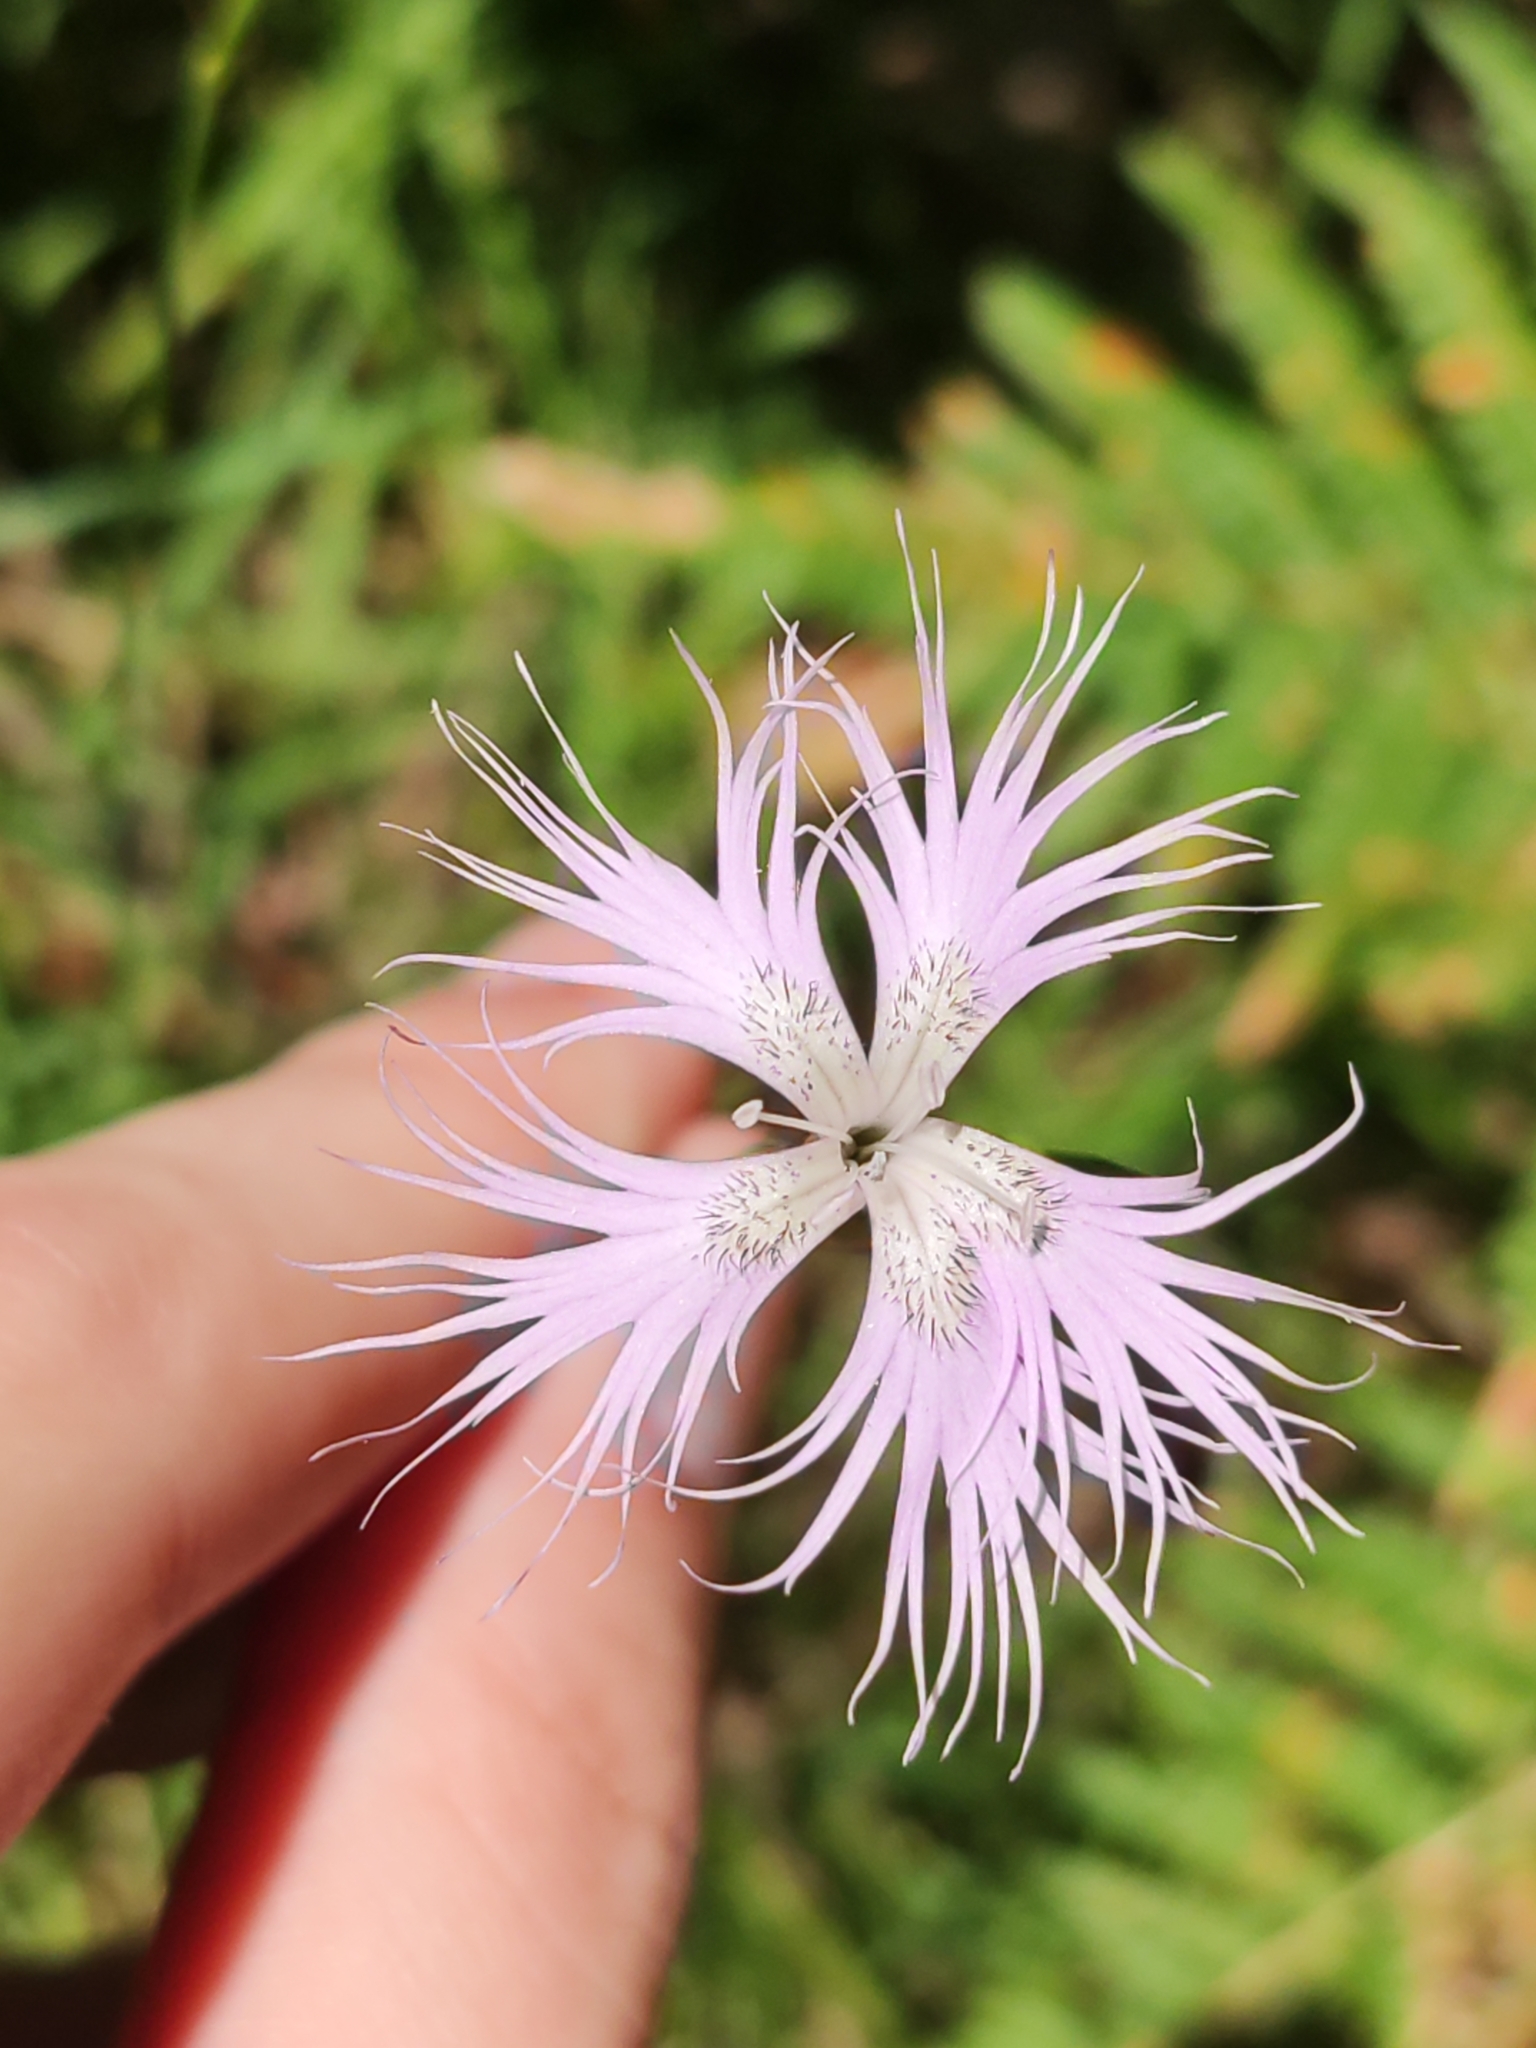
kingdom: Plantae
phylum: Tracheophyta
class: Magnoliopsida
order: Caryophyllales
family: Caryophyllaceae
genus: Dianthus
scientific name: Dianthus hyssopifolius
